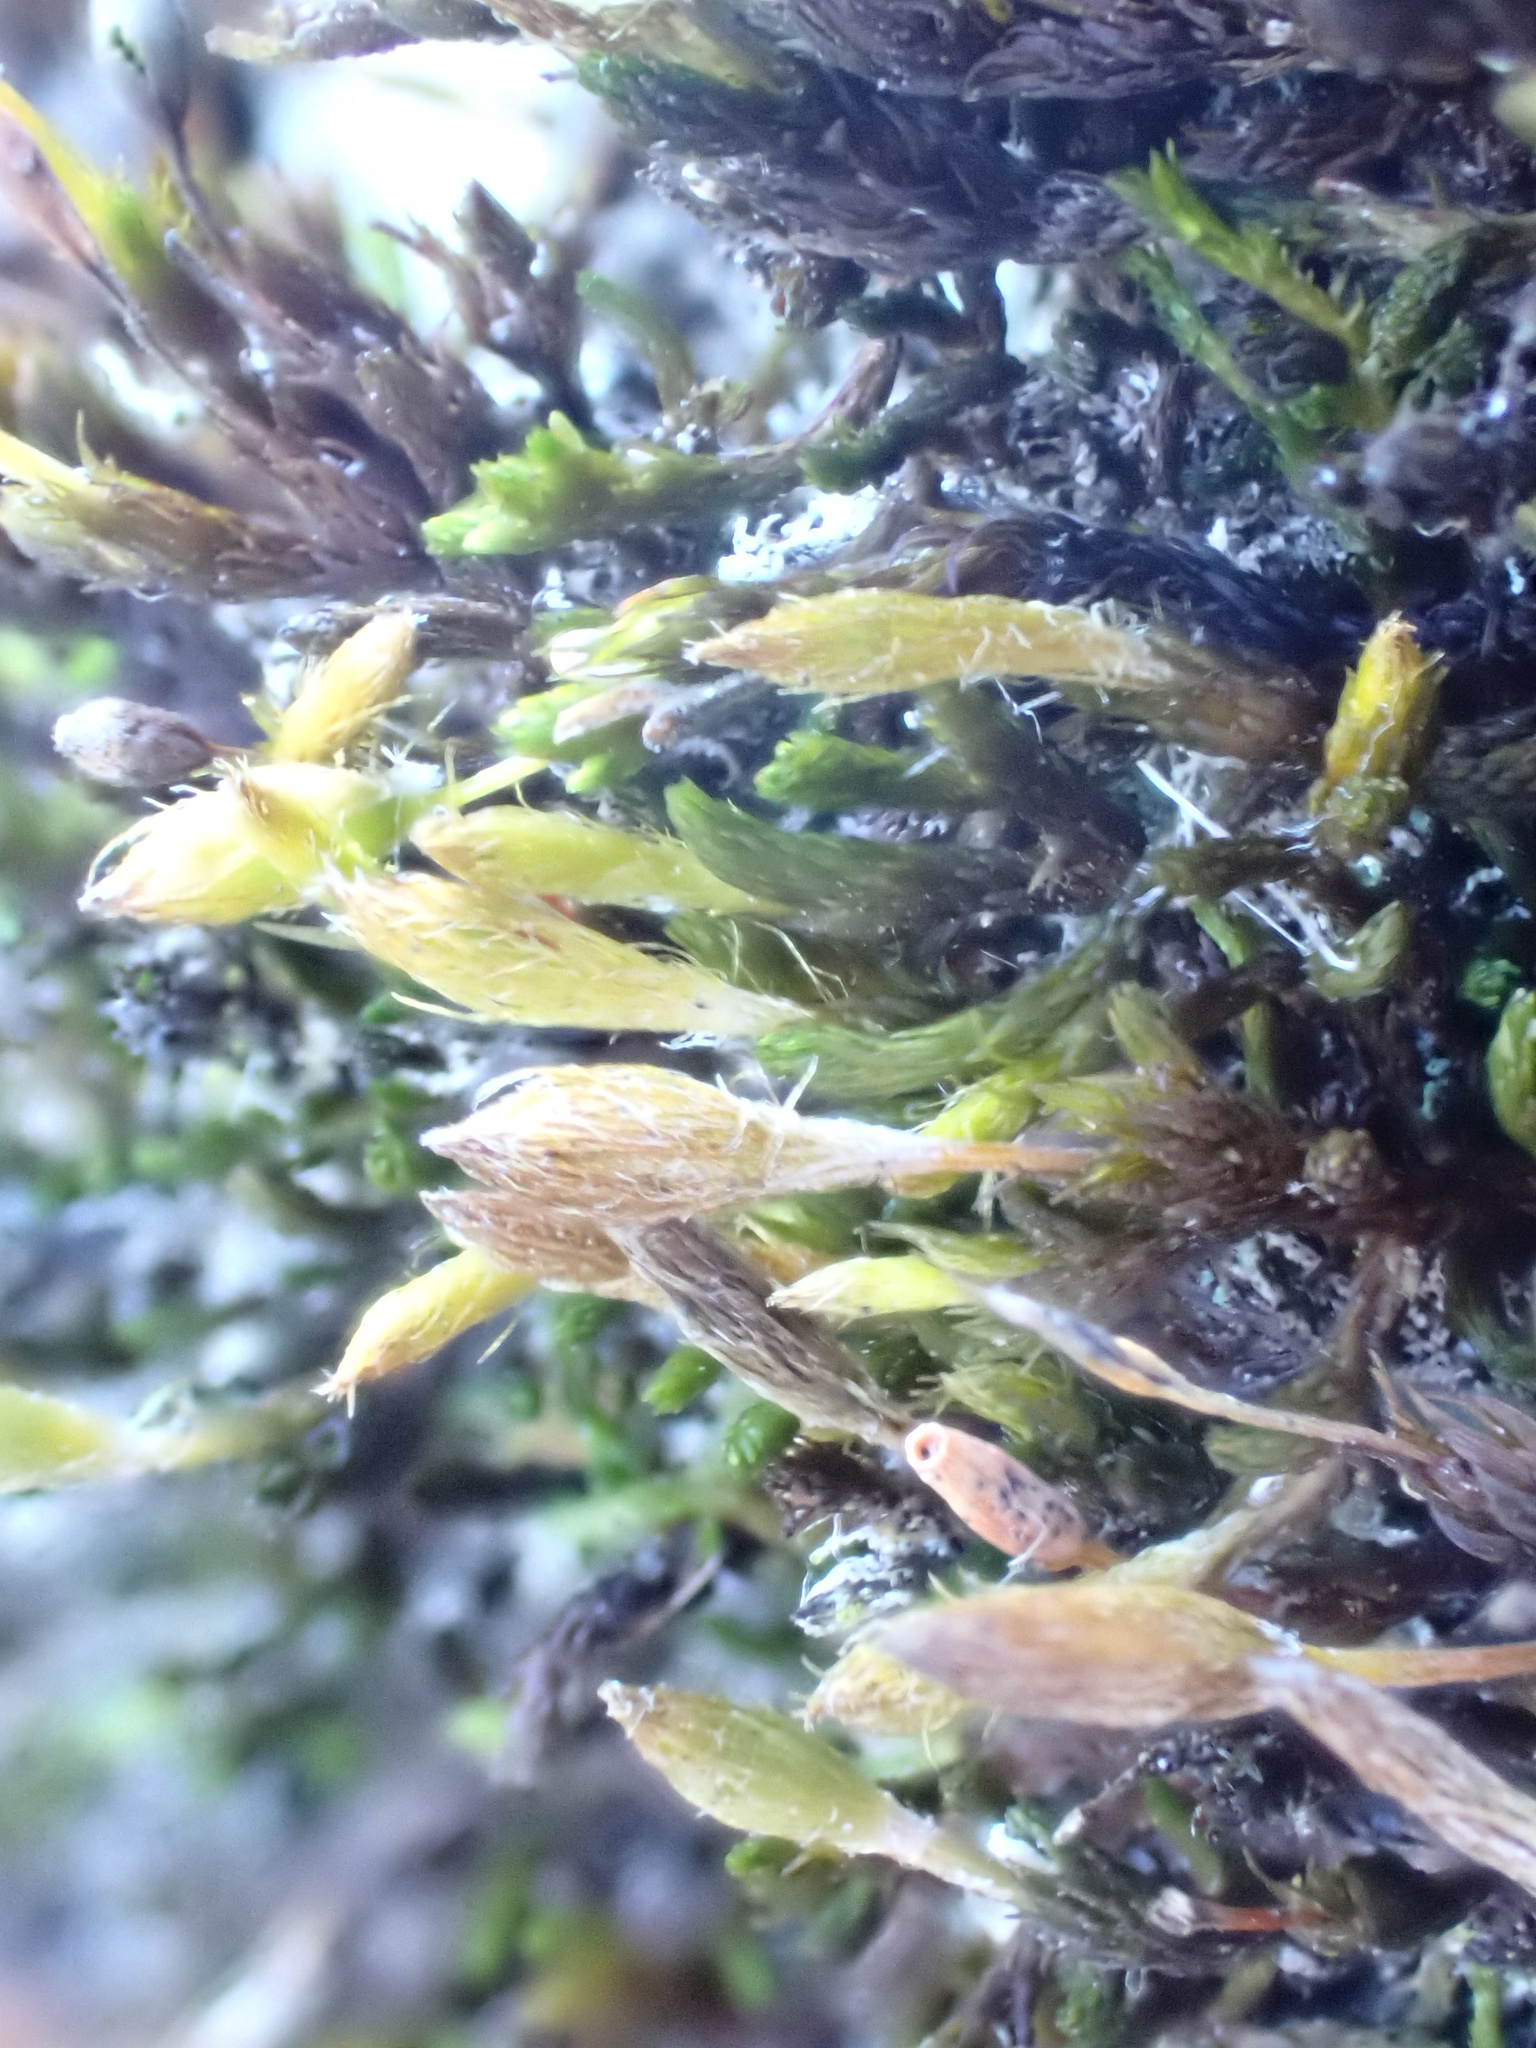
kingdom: Plantae
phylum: Bryophyta
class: Bryopsida
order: Orthotrichales
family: Orthotrichaceae
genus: Macrocoma
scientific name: Macrocoma tenuis
